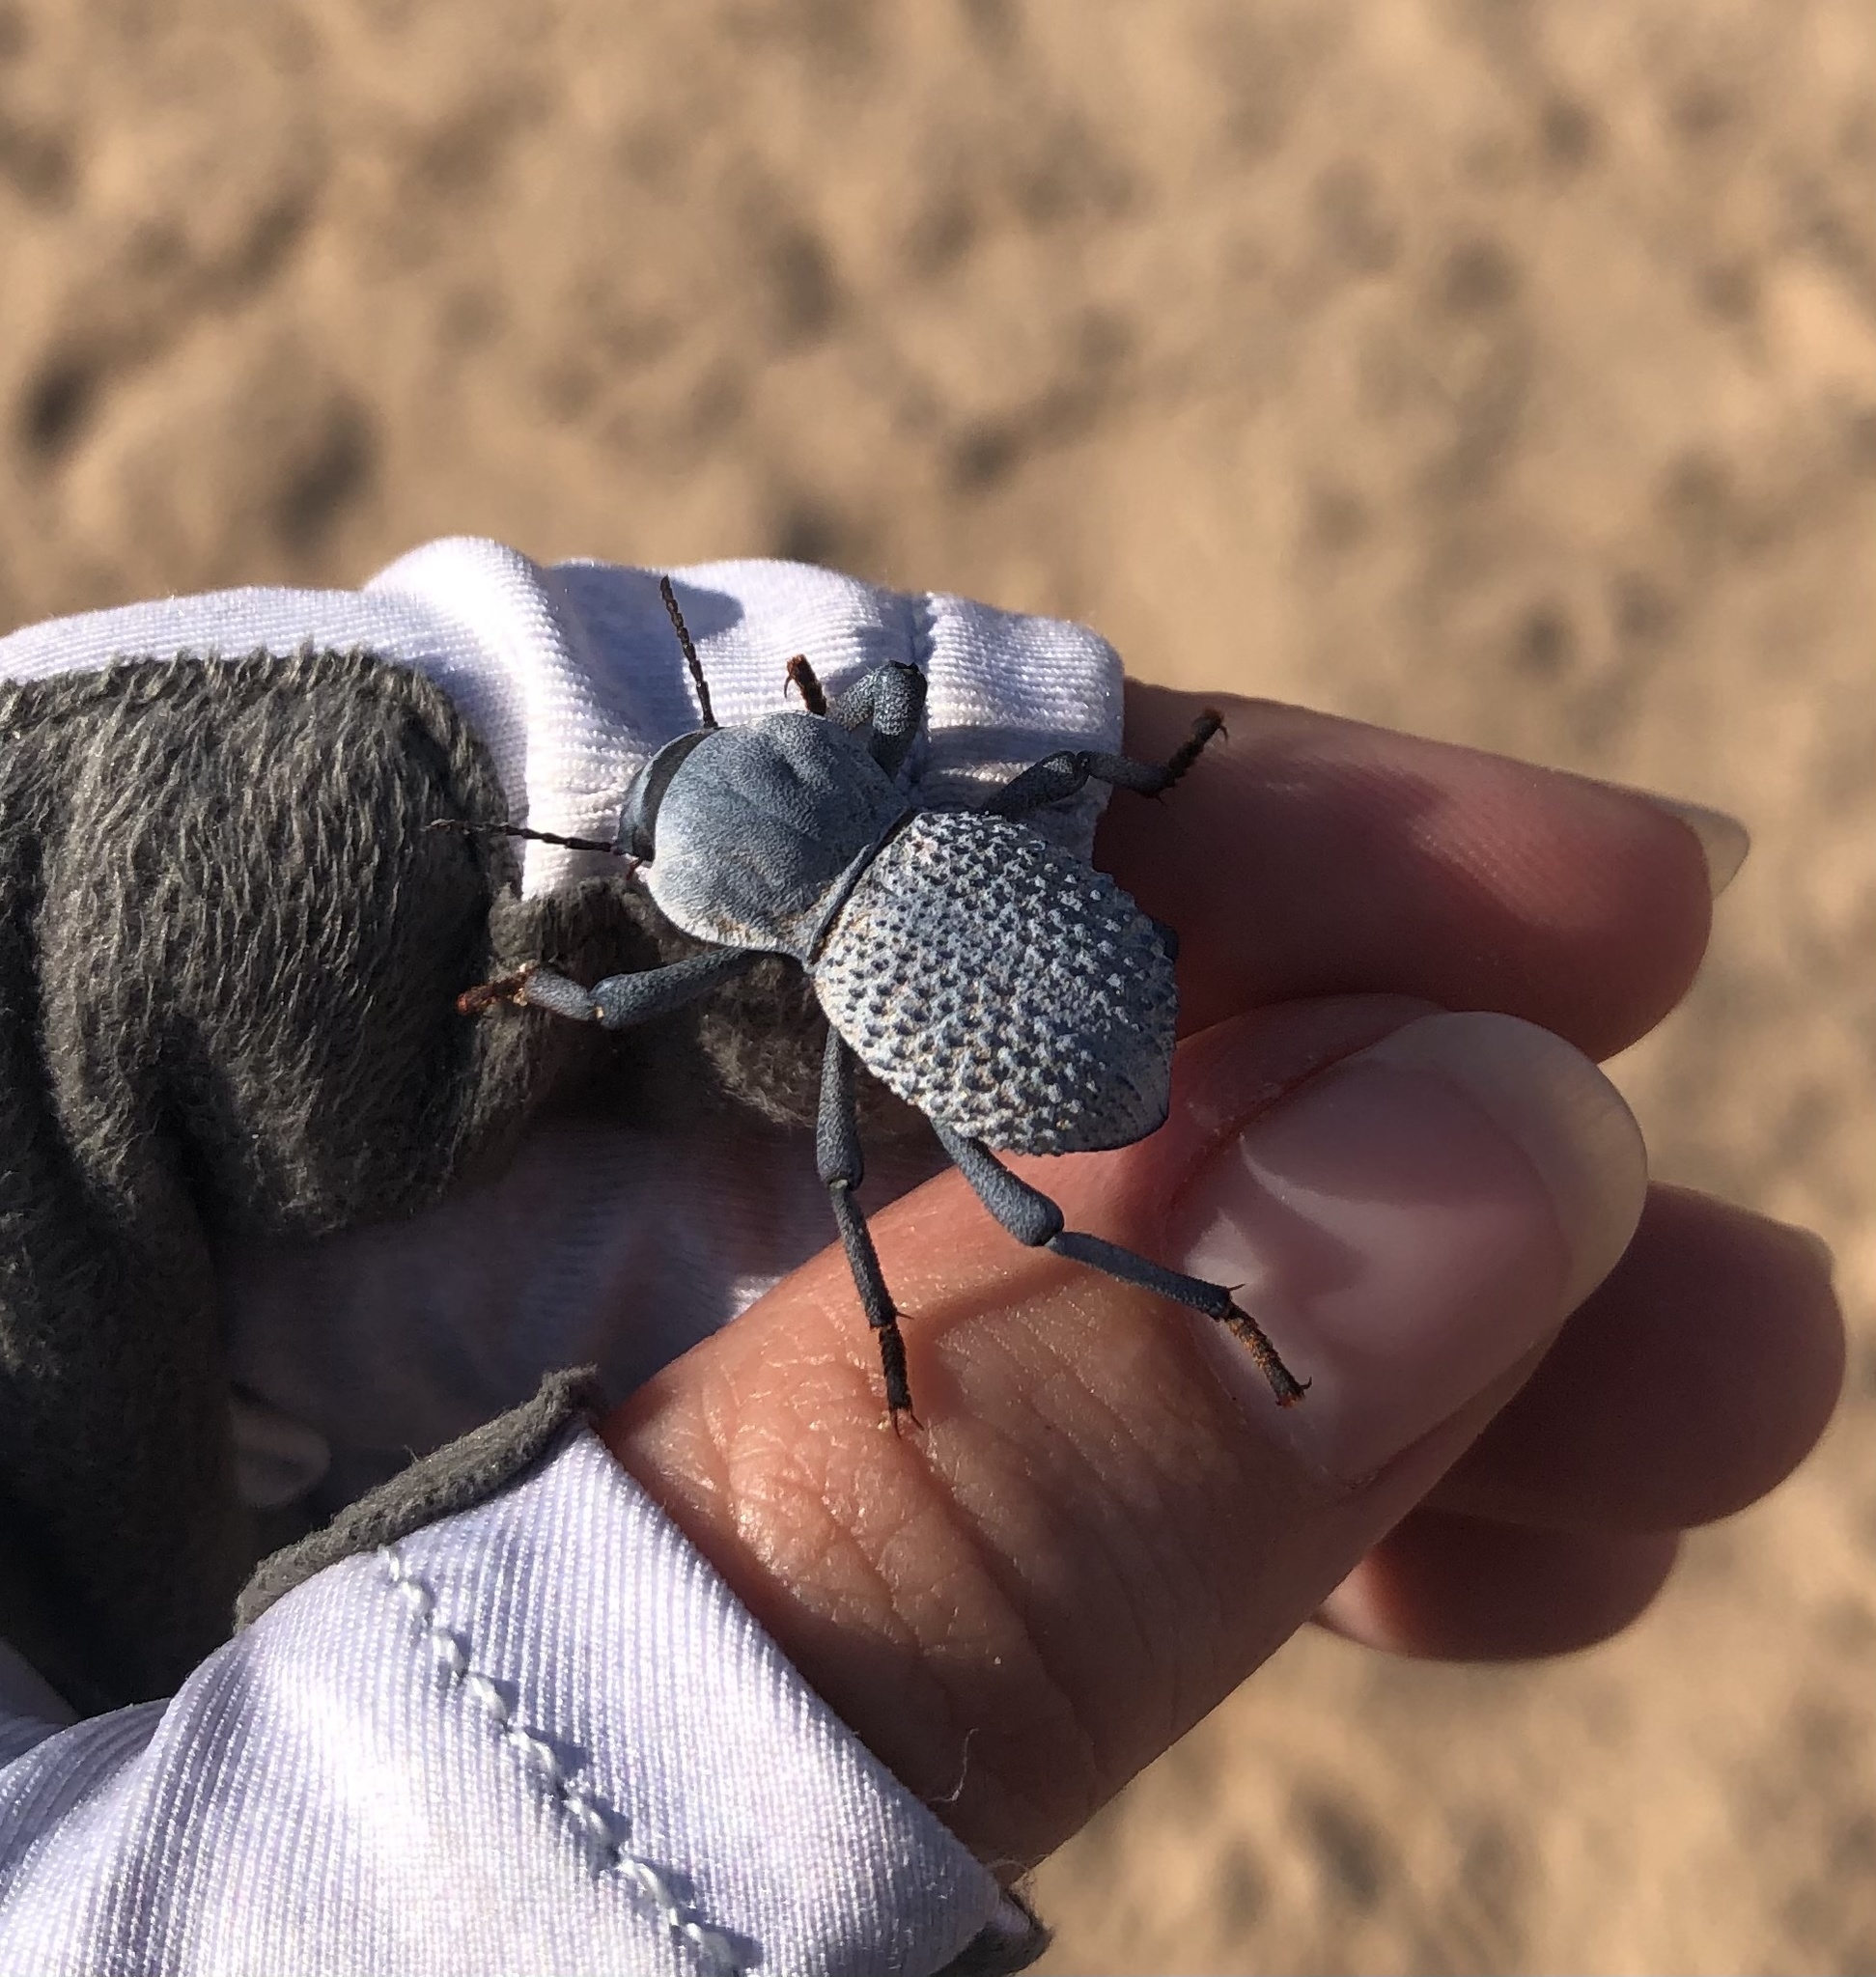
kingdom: Animalia
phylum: Arthropoda
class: Insecta
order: Coleoptera
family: Tenebrionidae
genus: Asbolus
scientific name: Asbolus verrucosus
